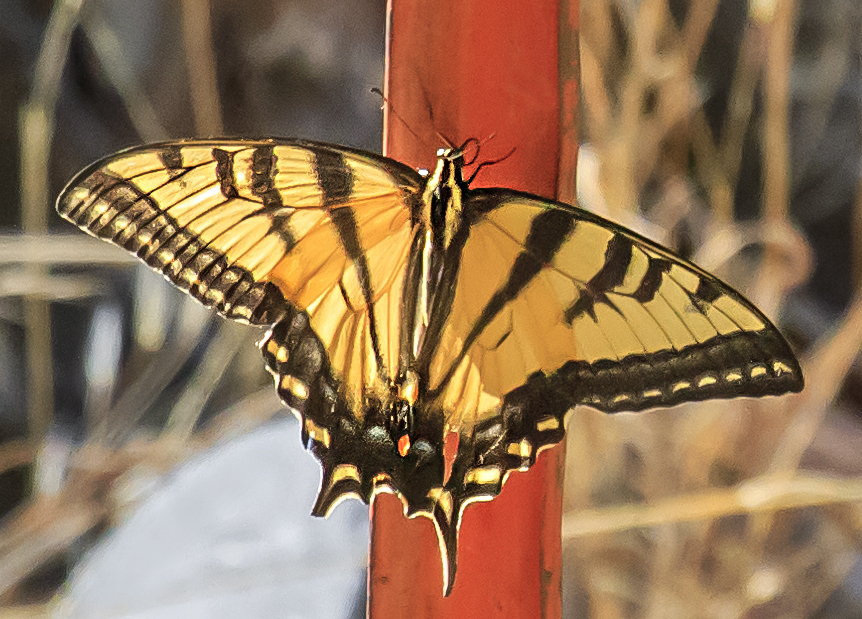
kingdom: Animalia
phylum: Arthropoda
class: Insecta
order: Lepidoptera
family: Papilionidae
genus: Papilio
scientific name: Papilio rutulus
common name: Western tiger swallowtail
